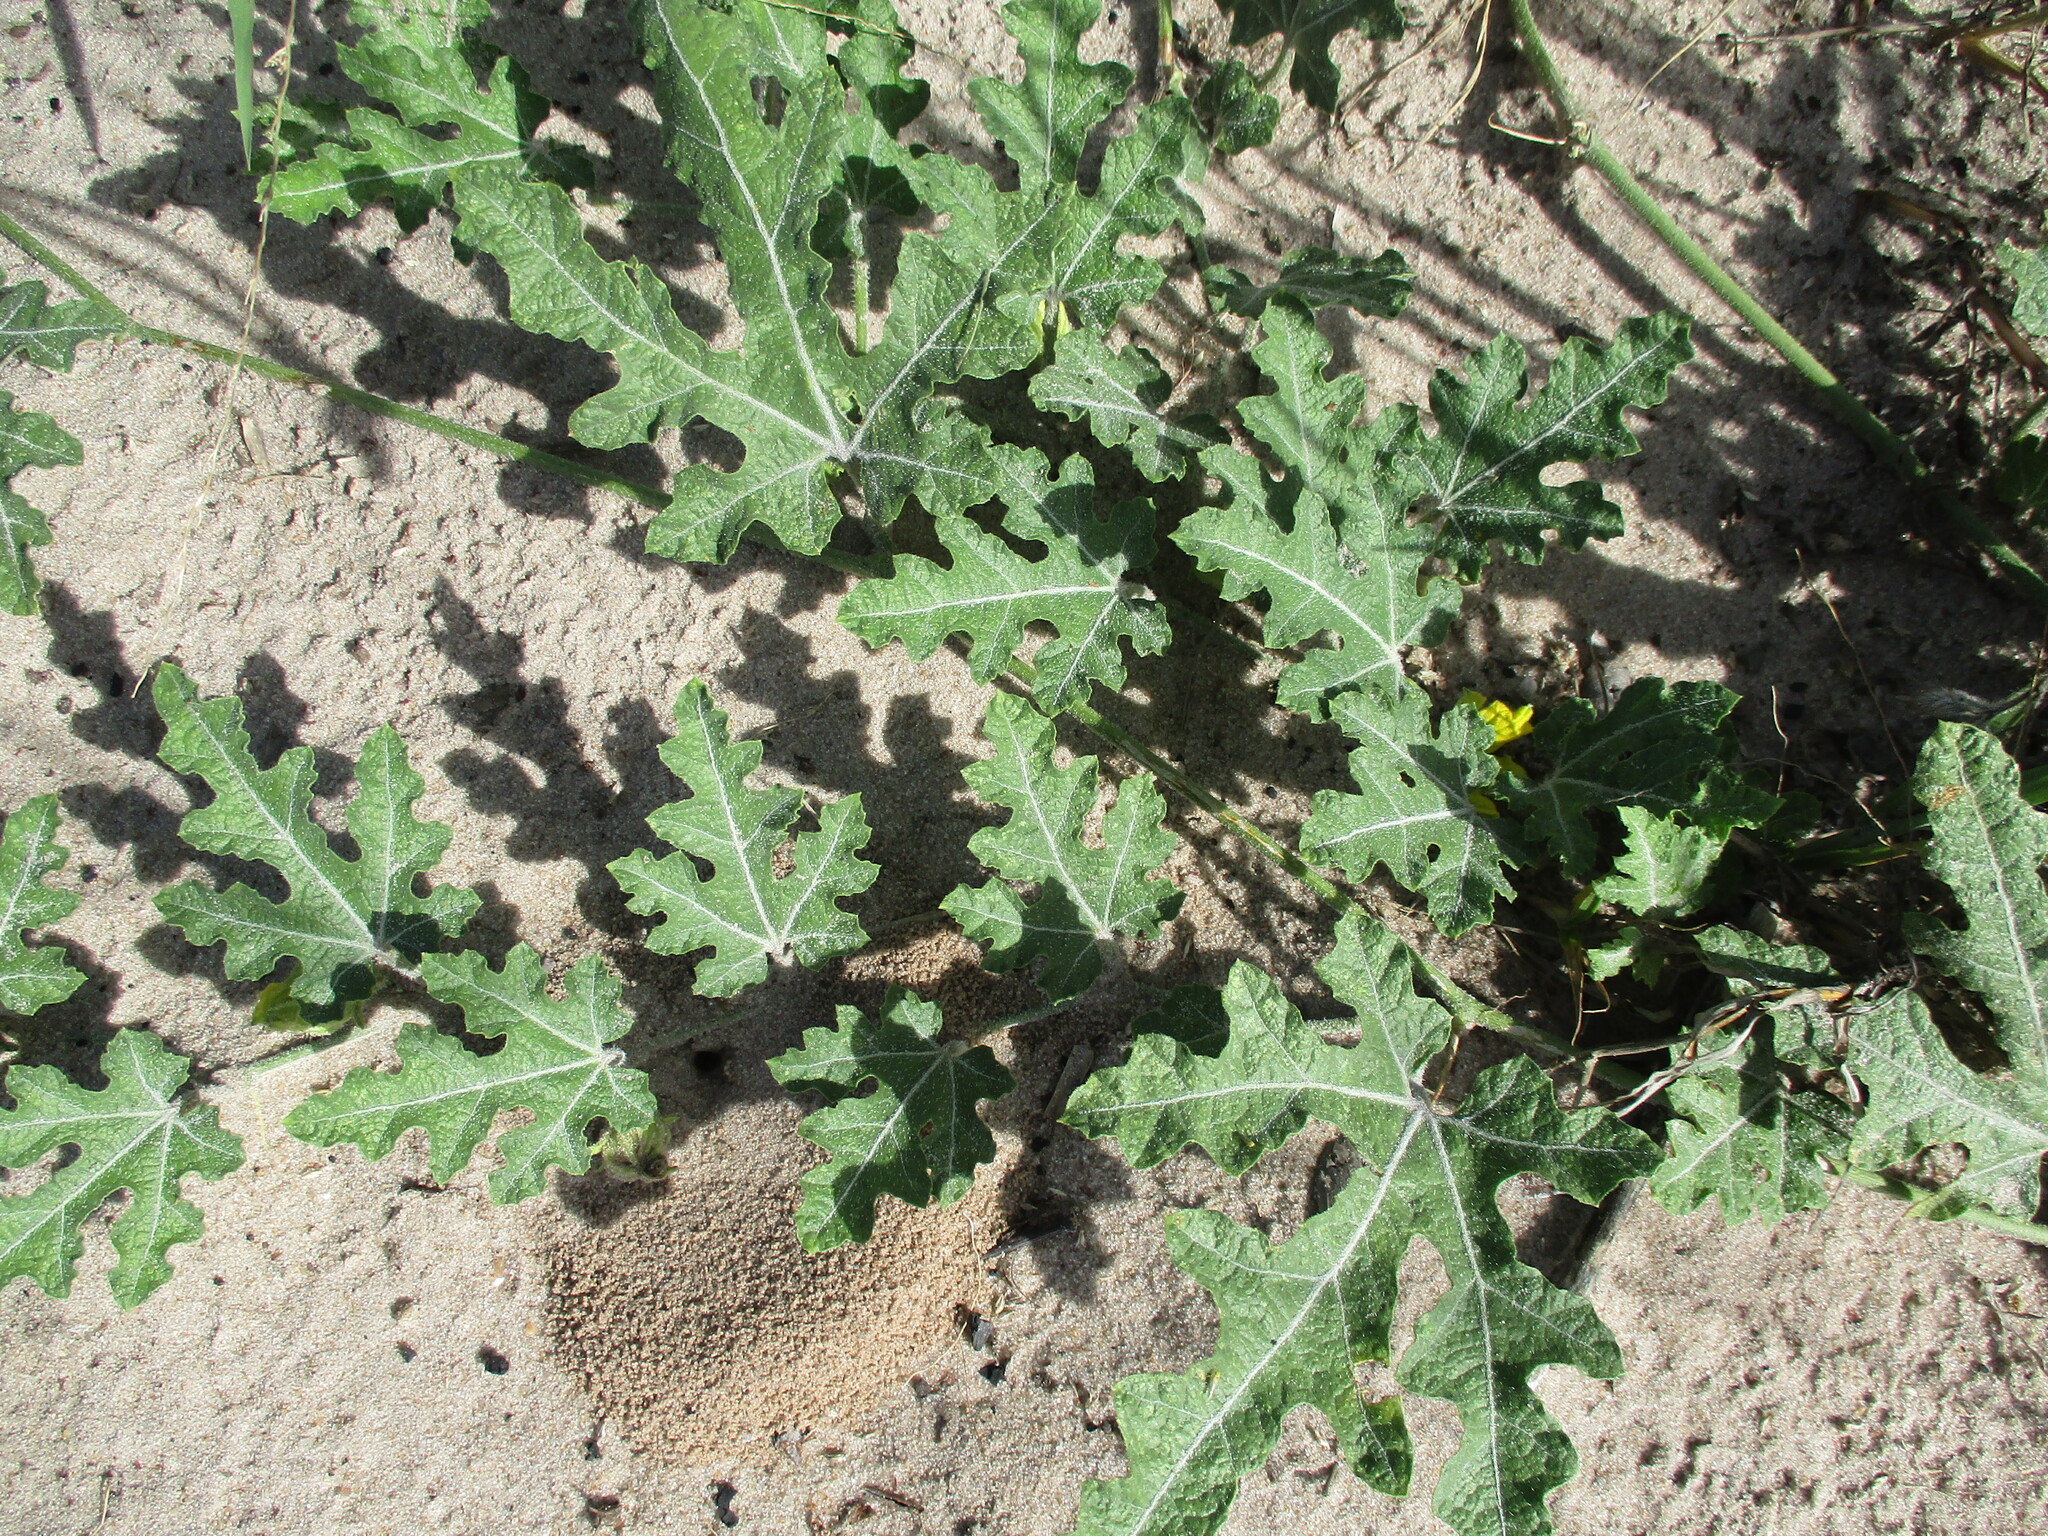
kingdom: Plantae
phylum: Tracheophyta
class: Magnoliopsida
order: Cucurbitales
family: Cucurbitaceae
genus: Citrullus
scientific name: Citrullus naudinianus
